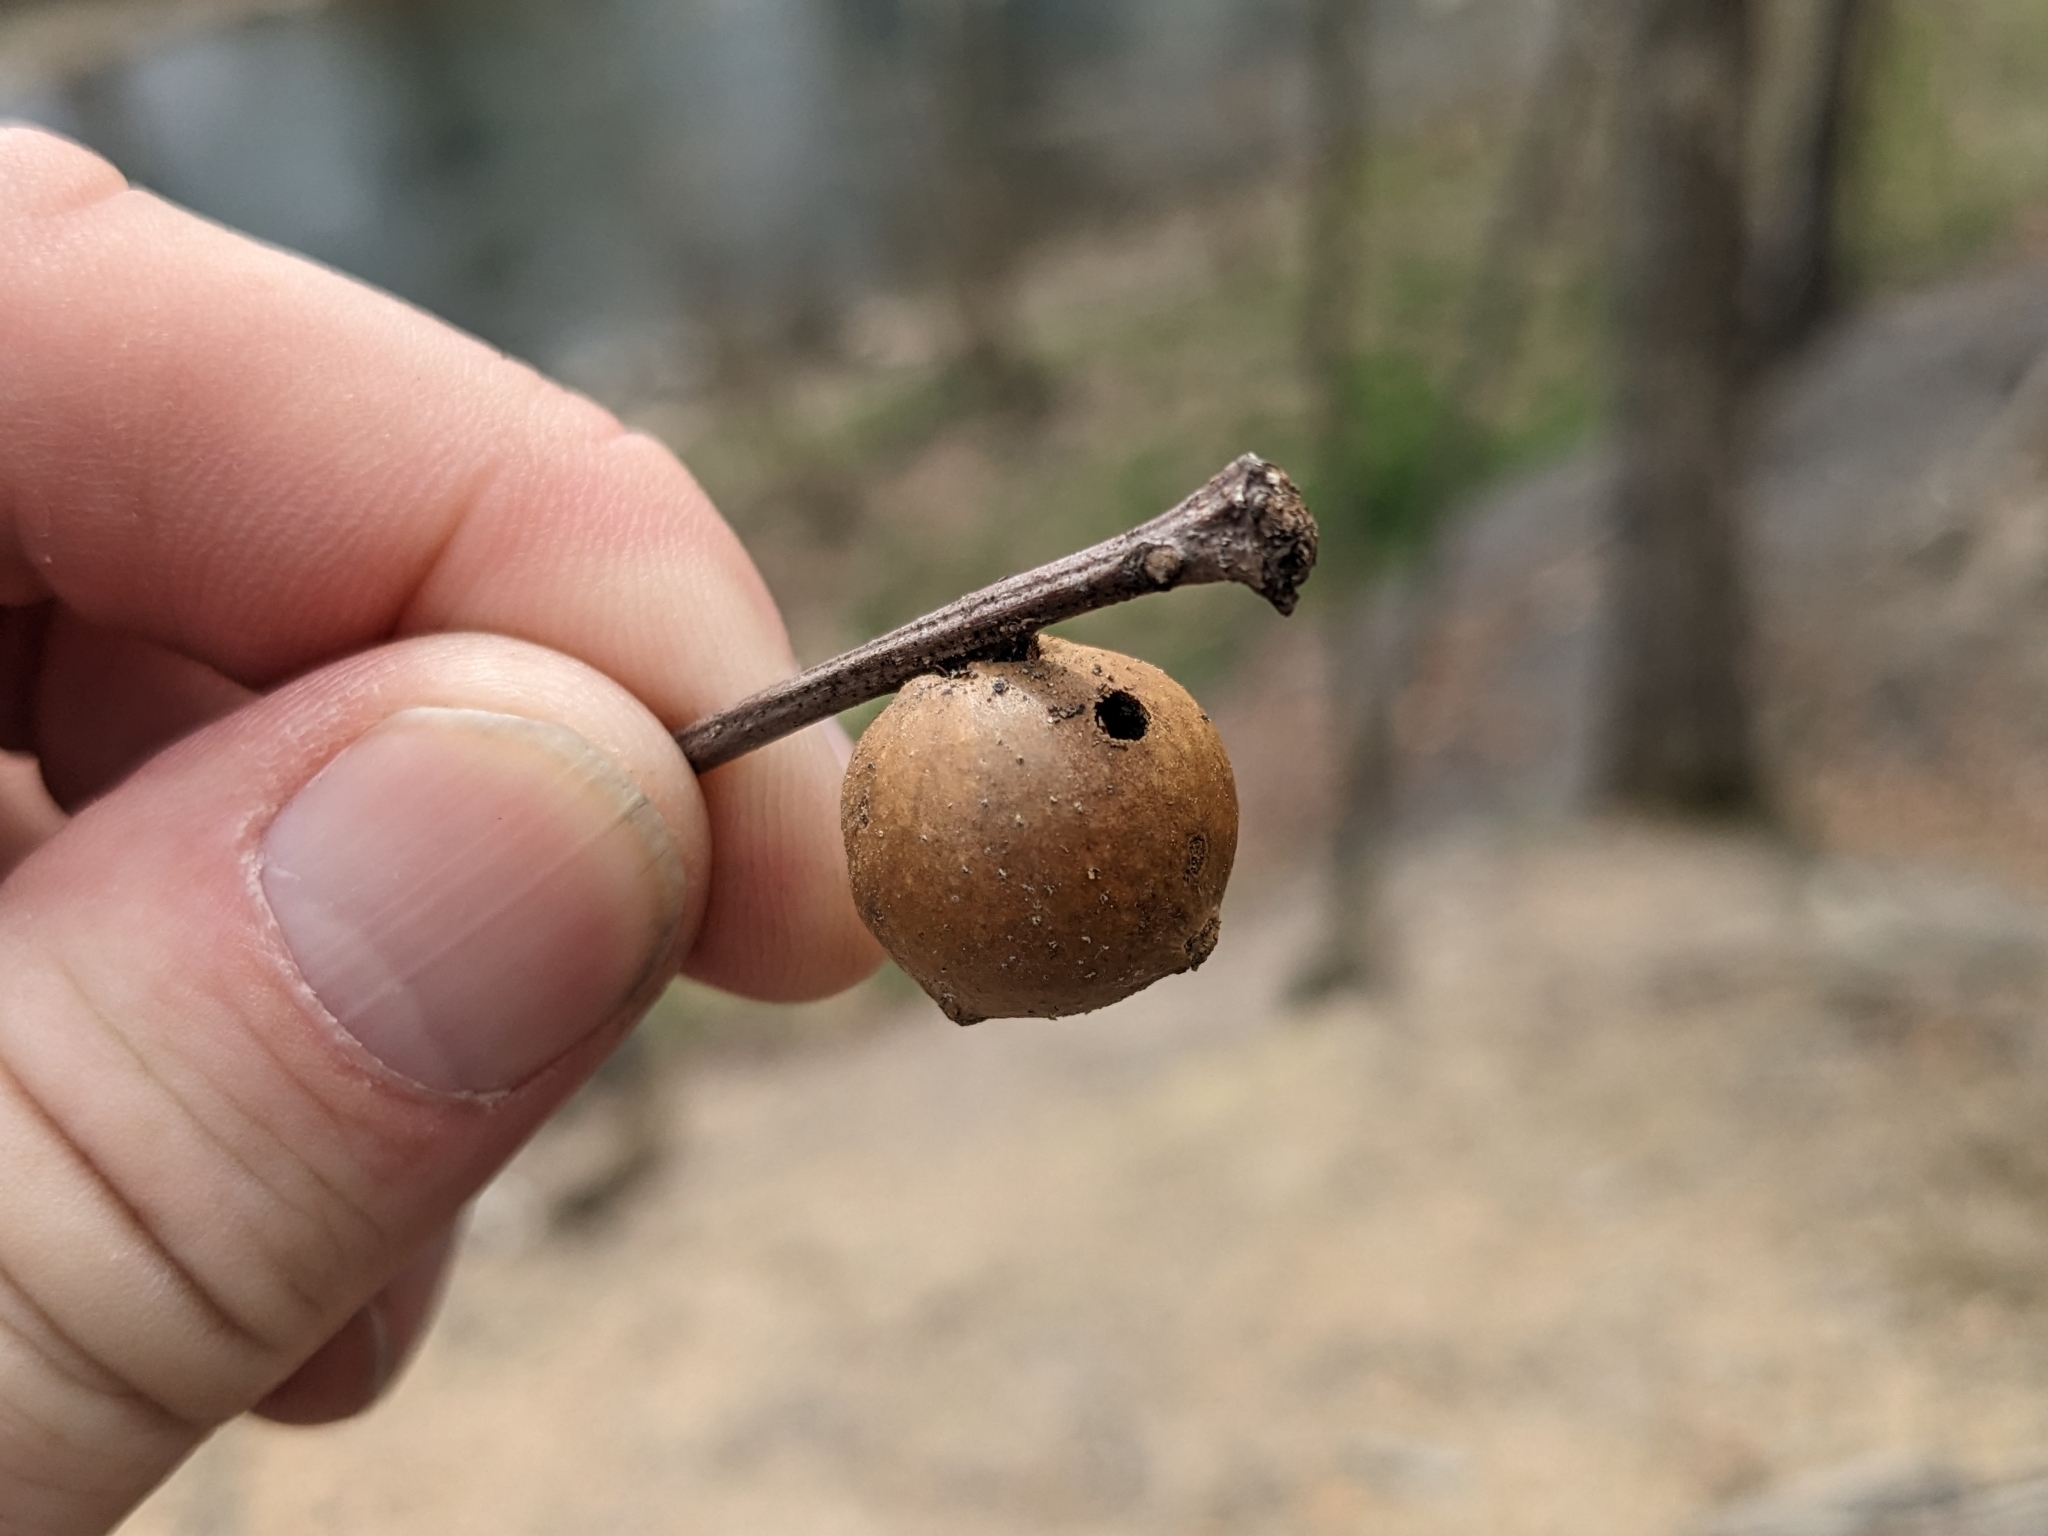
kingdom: Animalia
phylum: Arthropoda
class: Insecta
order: Hymenoptera
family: Cynipidae
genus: Disholcaspis
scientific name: Disholcaspis quercusglobulus
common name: Round bullet gall wasp
